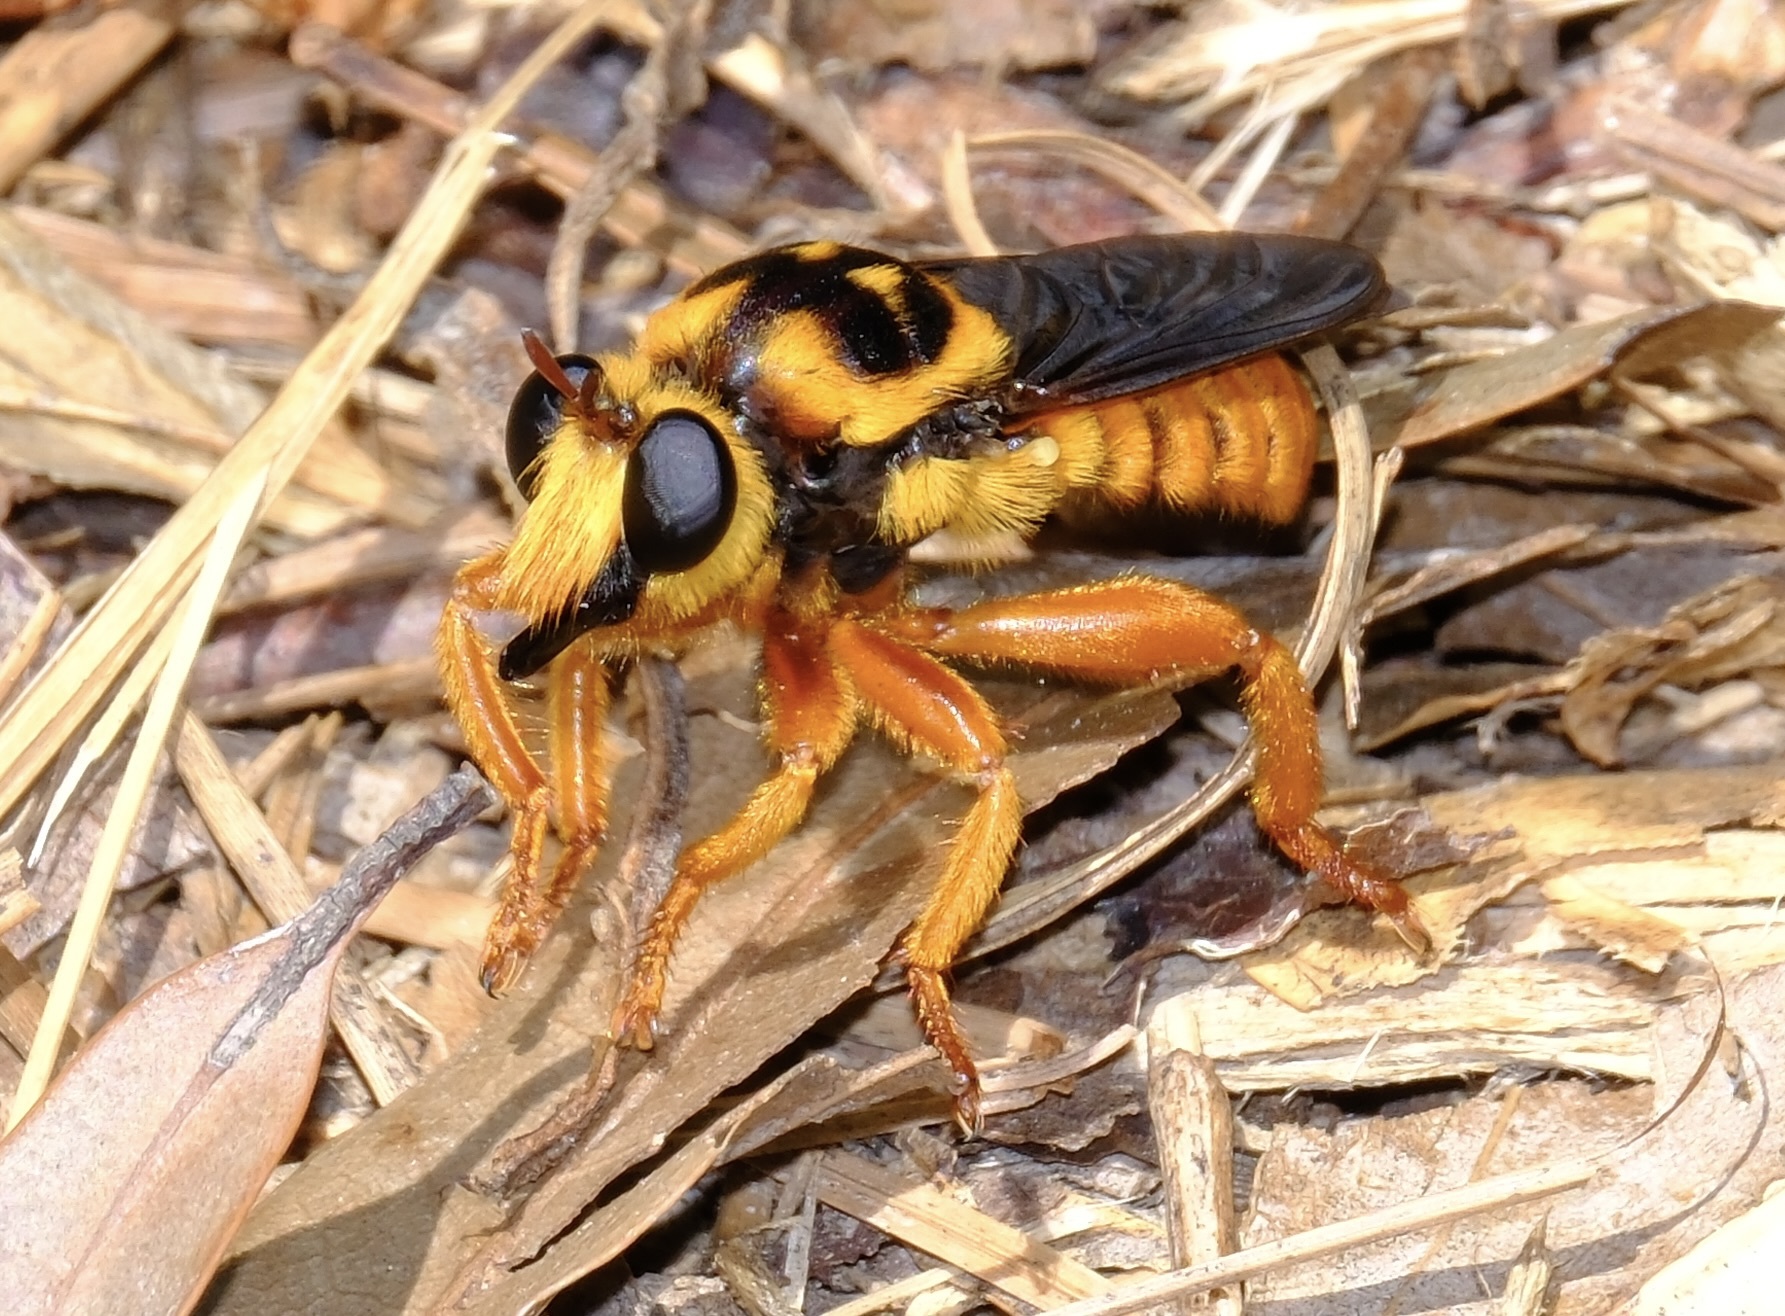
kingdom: Animalia
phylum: Arthropoda
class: Insecta
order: Diptera
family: Asilidae
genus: Laphria
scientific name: Laphria saffrana
